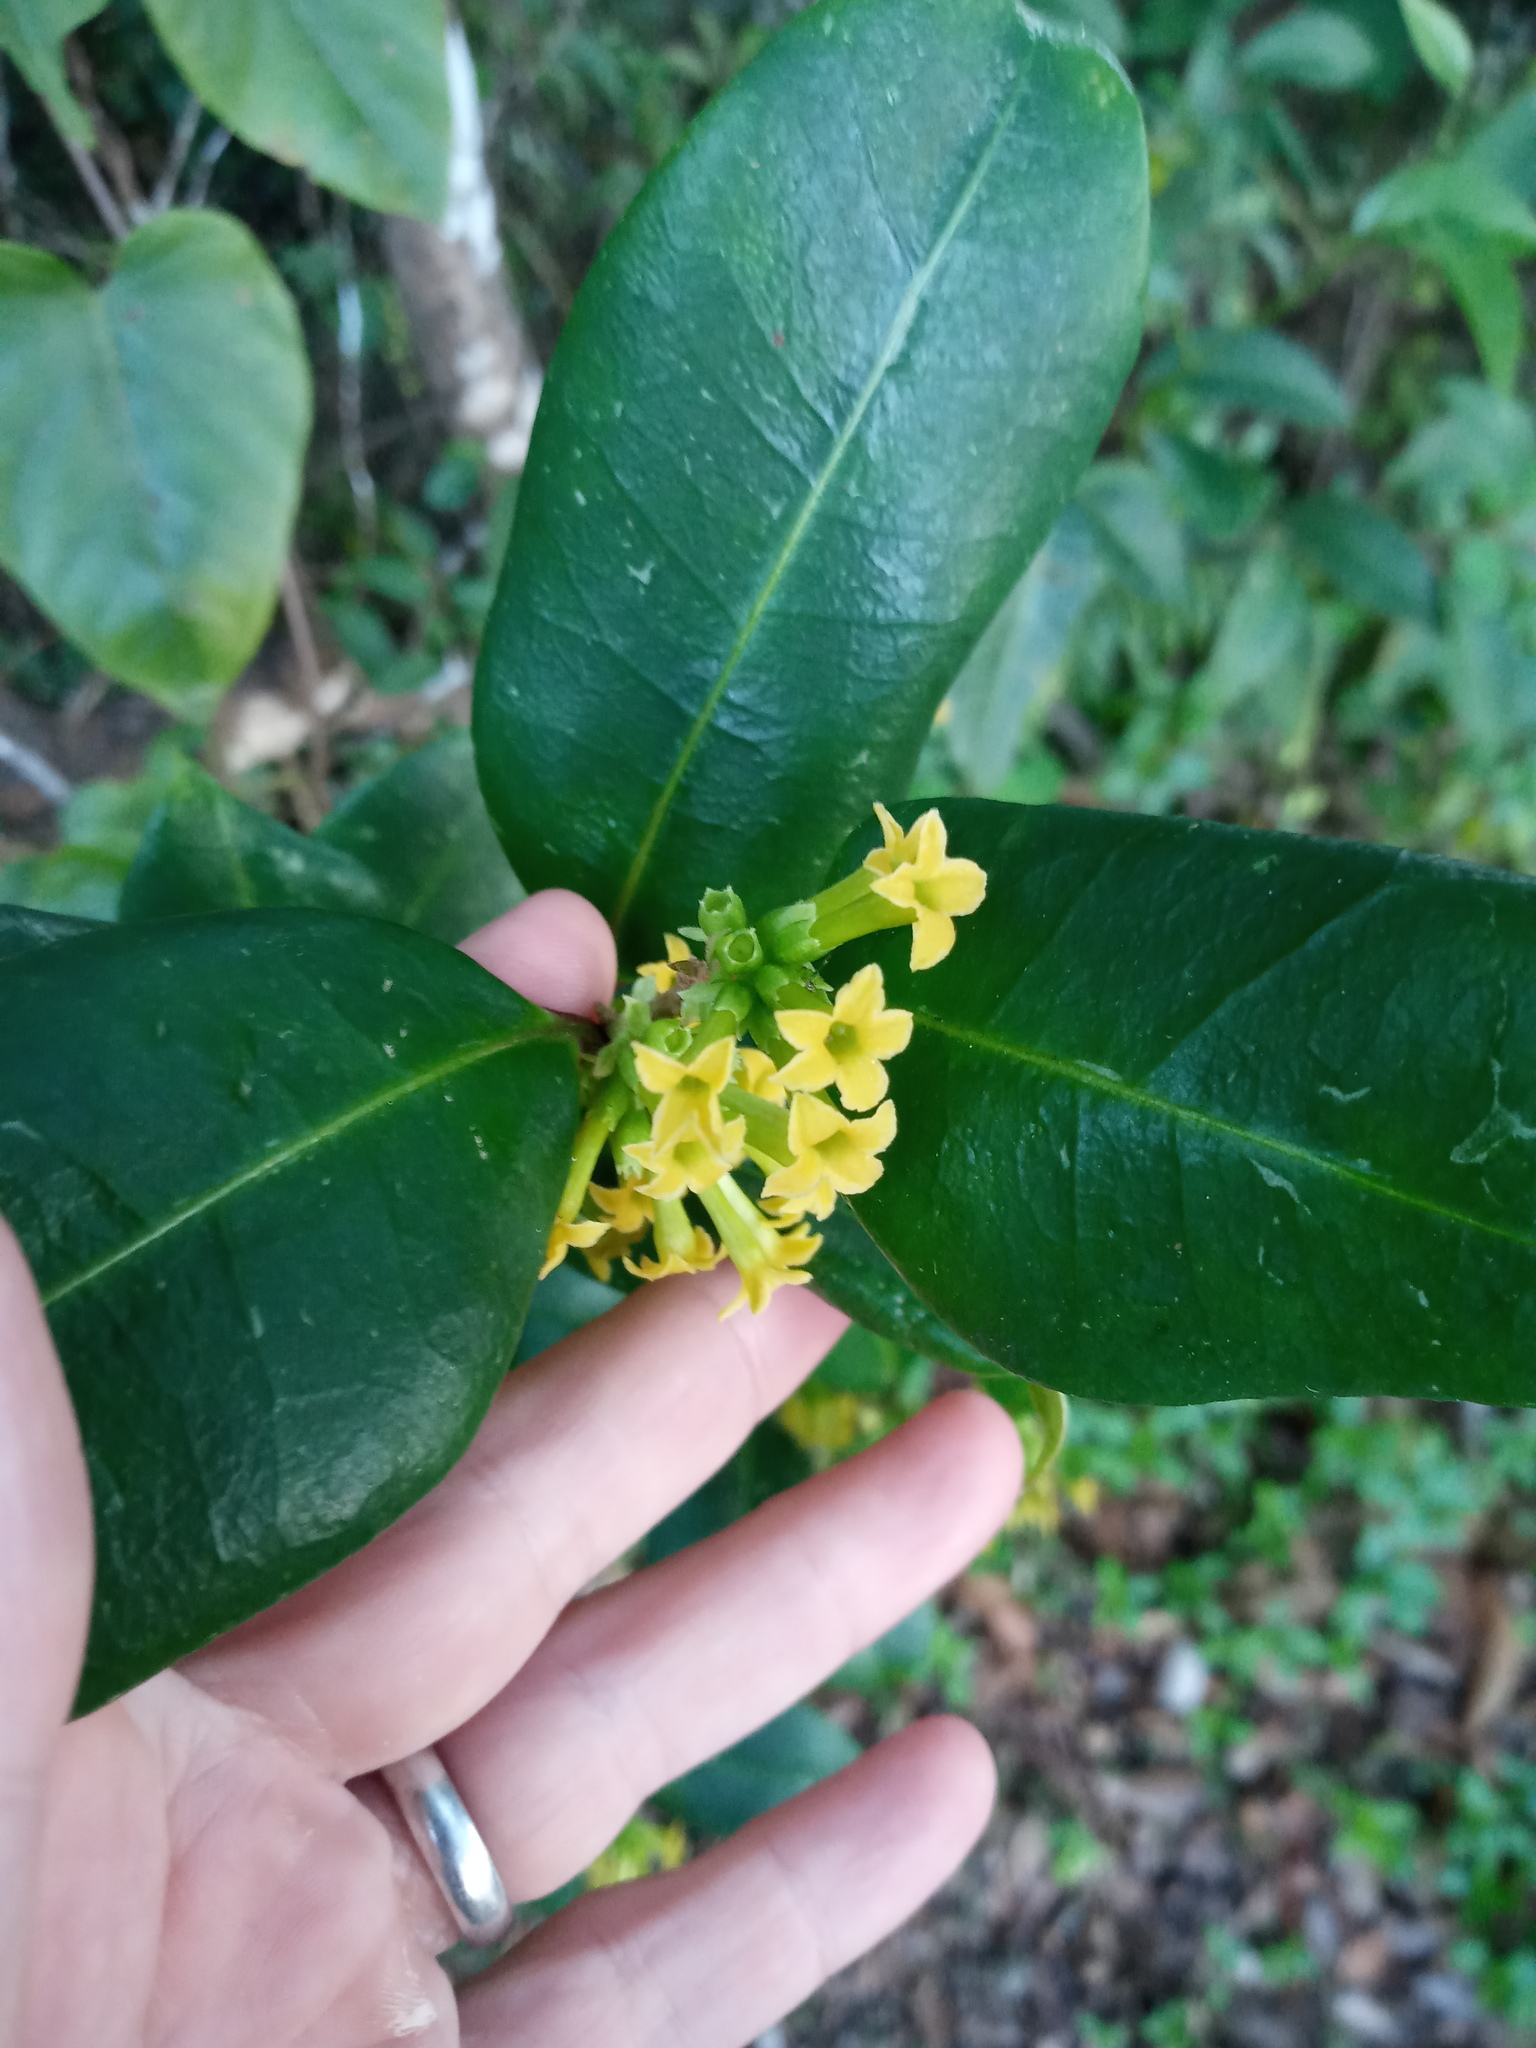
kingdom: Plantae
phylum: Tracheophyta
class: Magnoliopsida
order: Solanales
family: Solanaceae
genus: Cestrum
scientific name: Cestrum citrifolium
